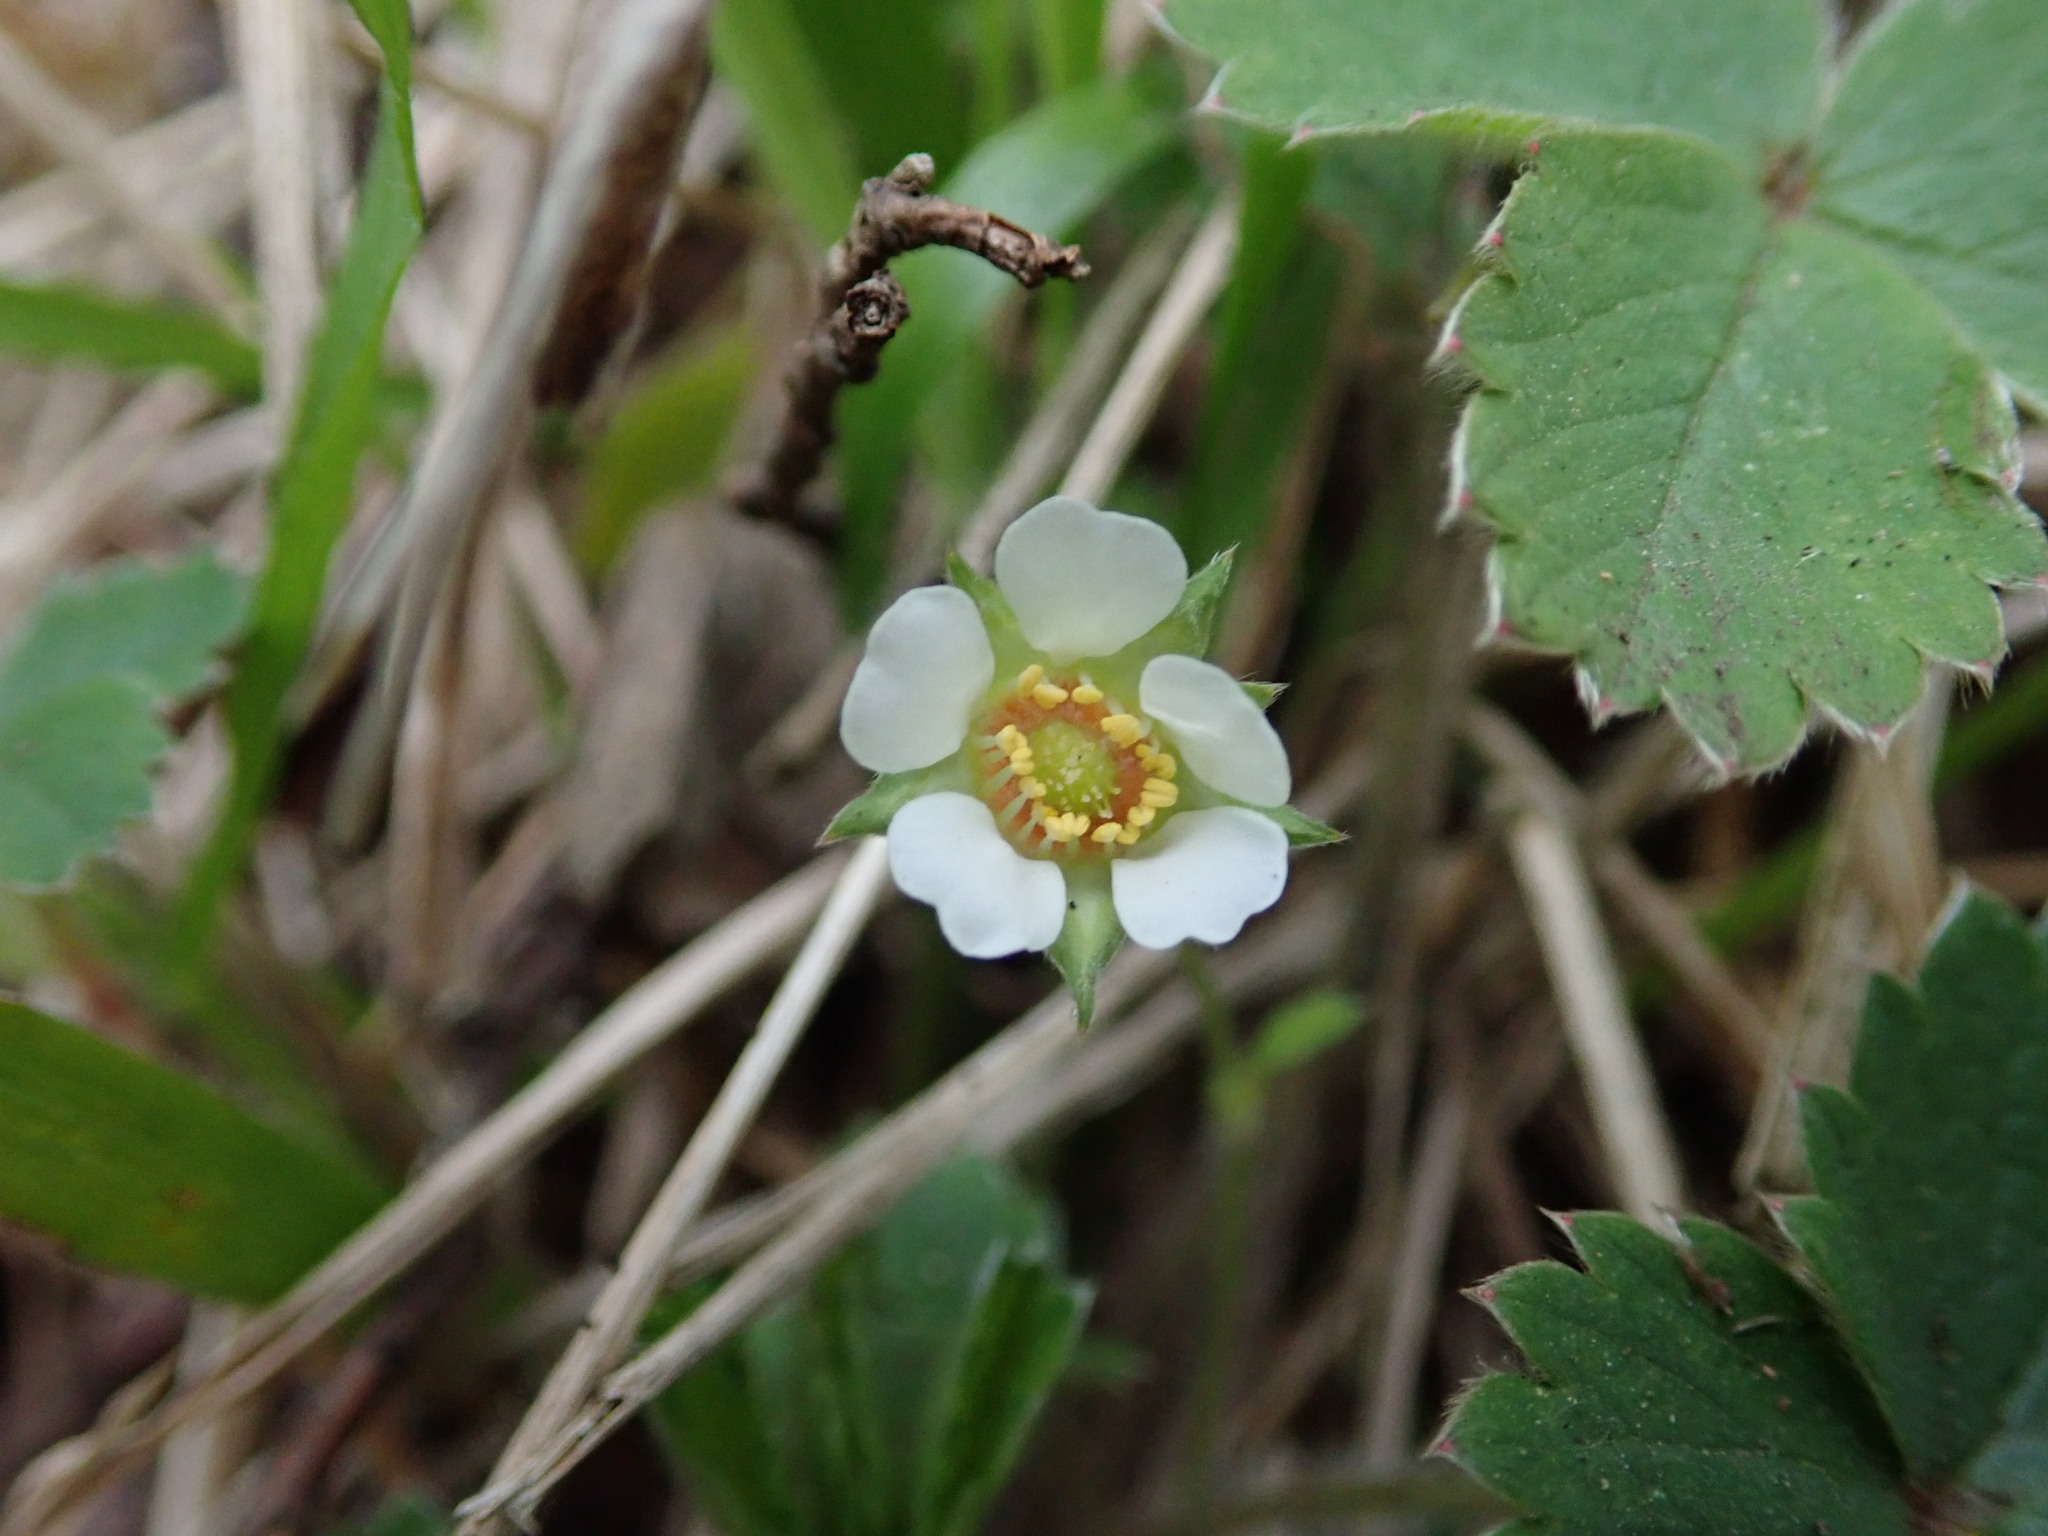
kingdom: Plantae
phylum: Tracheophyta
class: Magnoliopsida
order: Rosales
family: Rosaceae
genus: Potentilla
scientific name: Potentilla sterilis
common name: Barren strawberry
